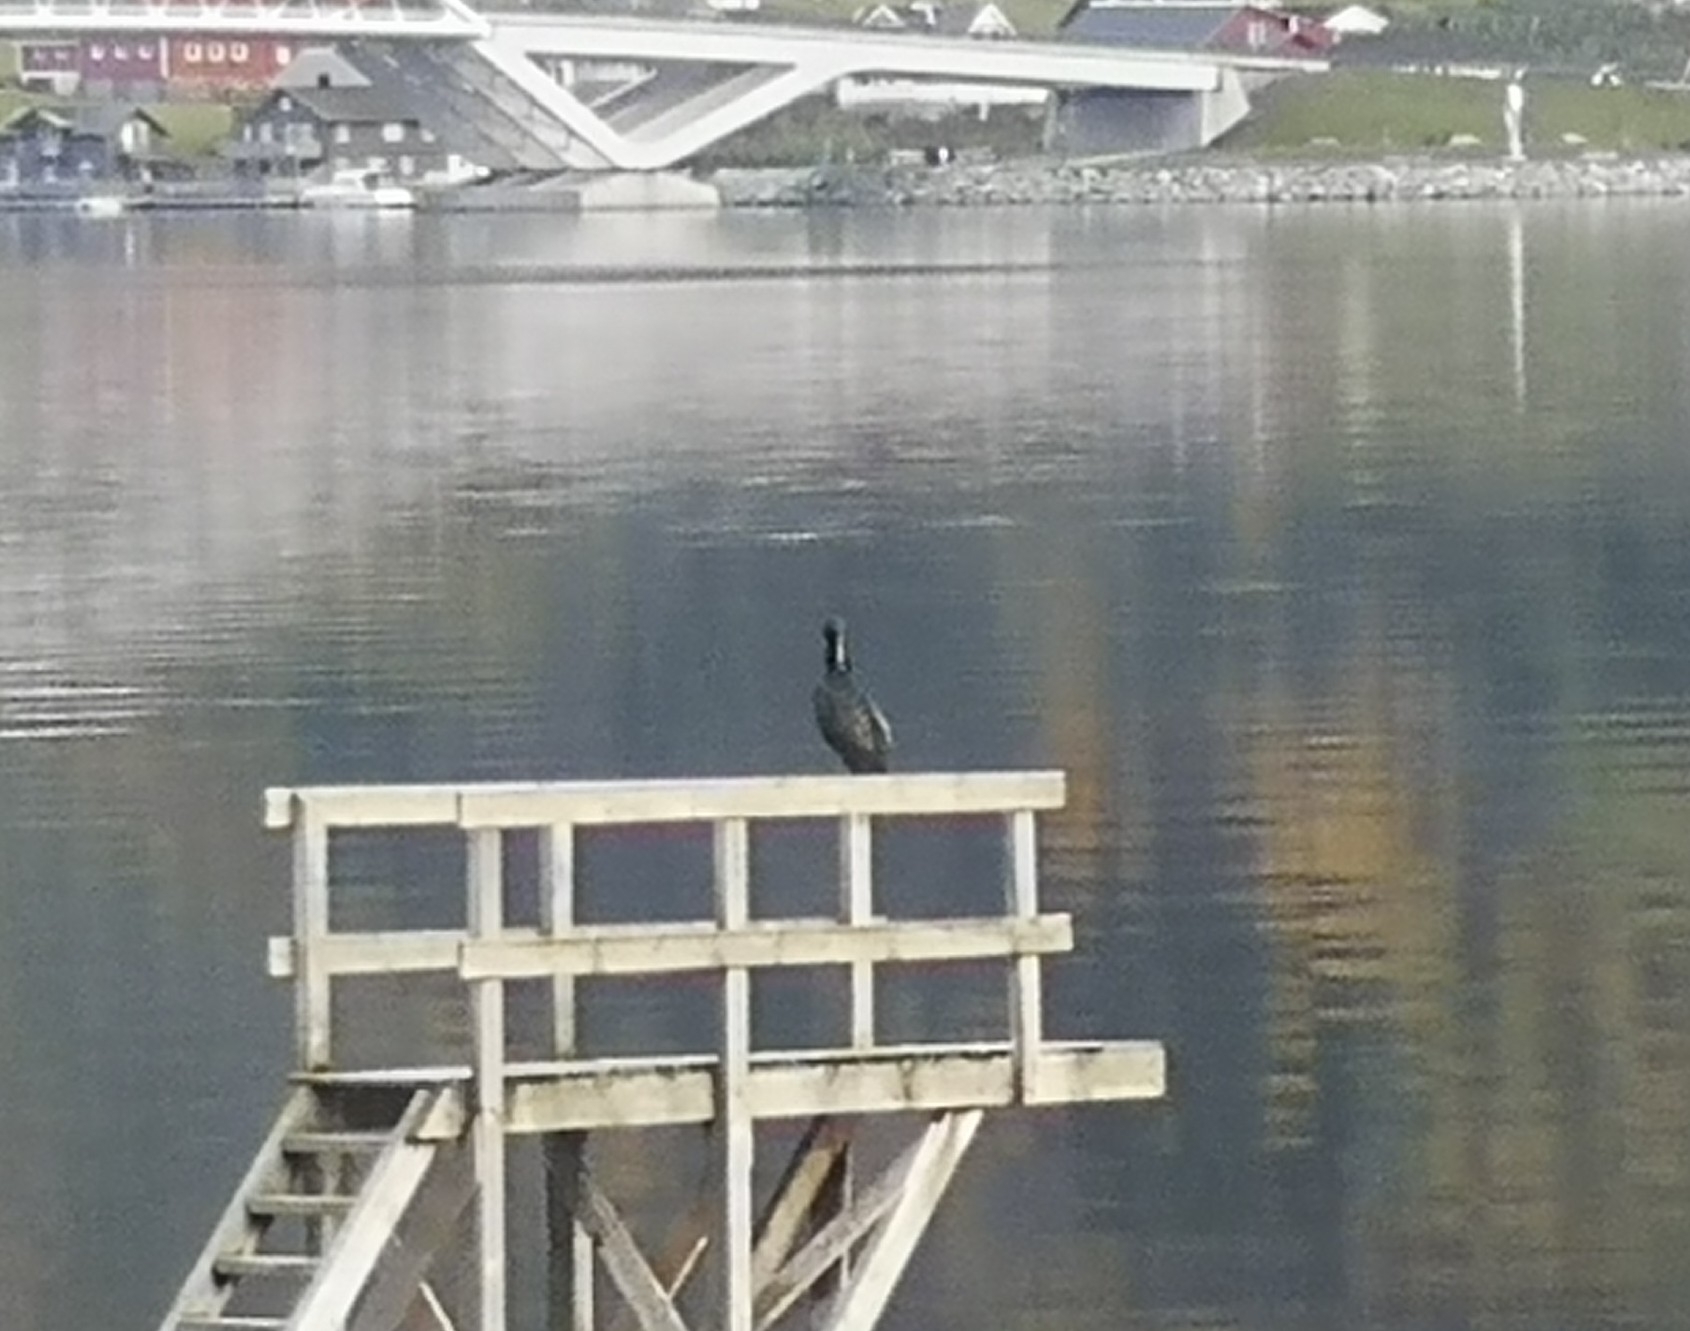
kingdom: Animalia
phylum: Chordata
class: Aves
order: Suliformes
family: Phalacrocoracidae
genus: Phalacrocorax
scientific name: Phalacrocorax carbo
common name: Great cormorant
